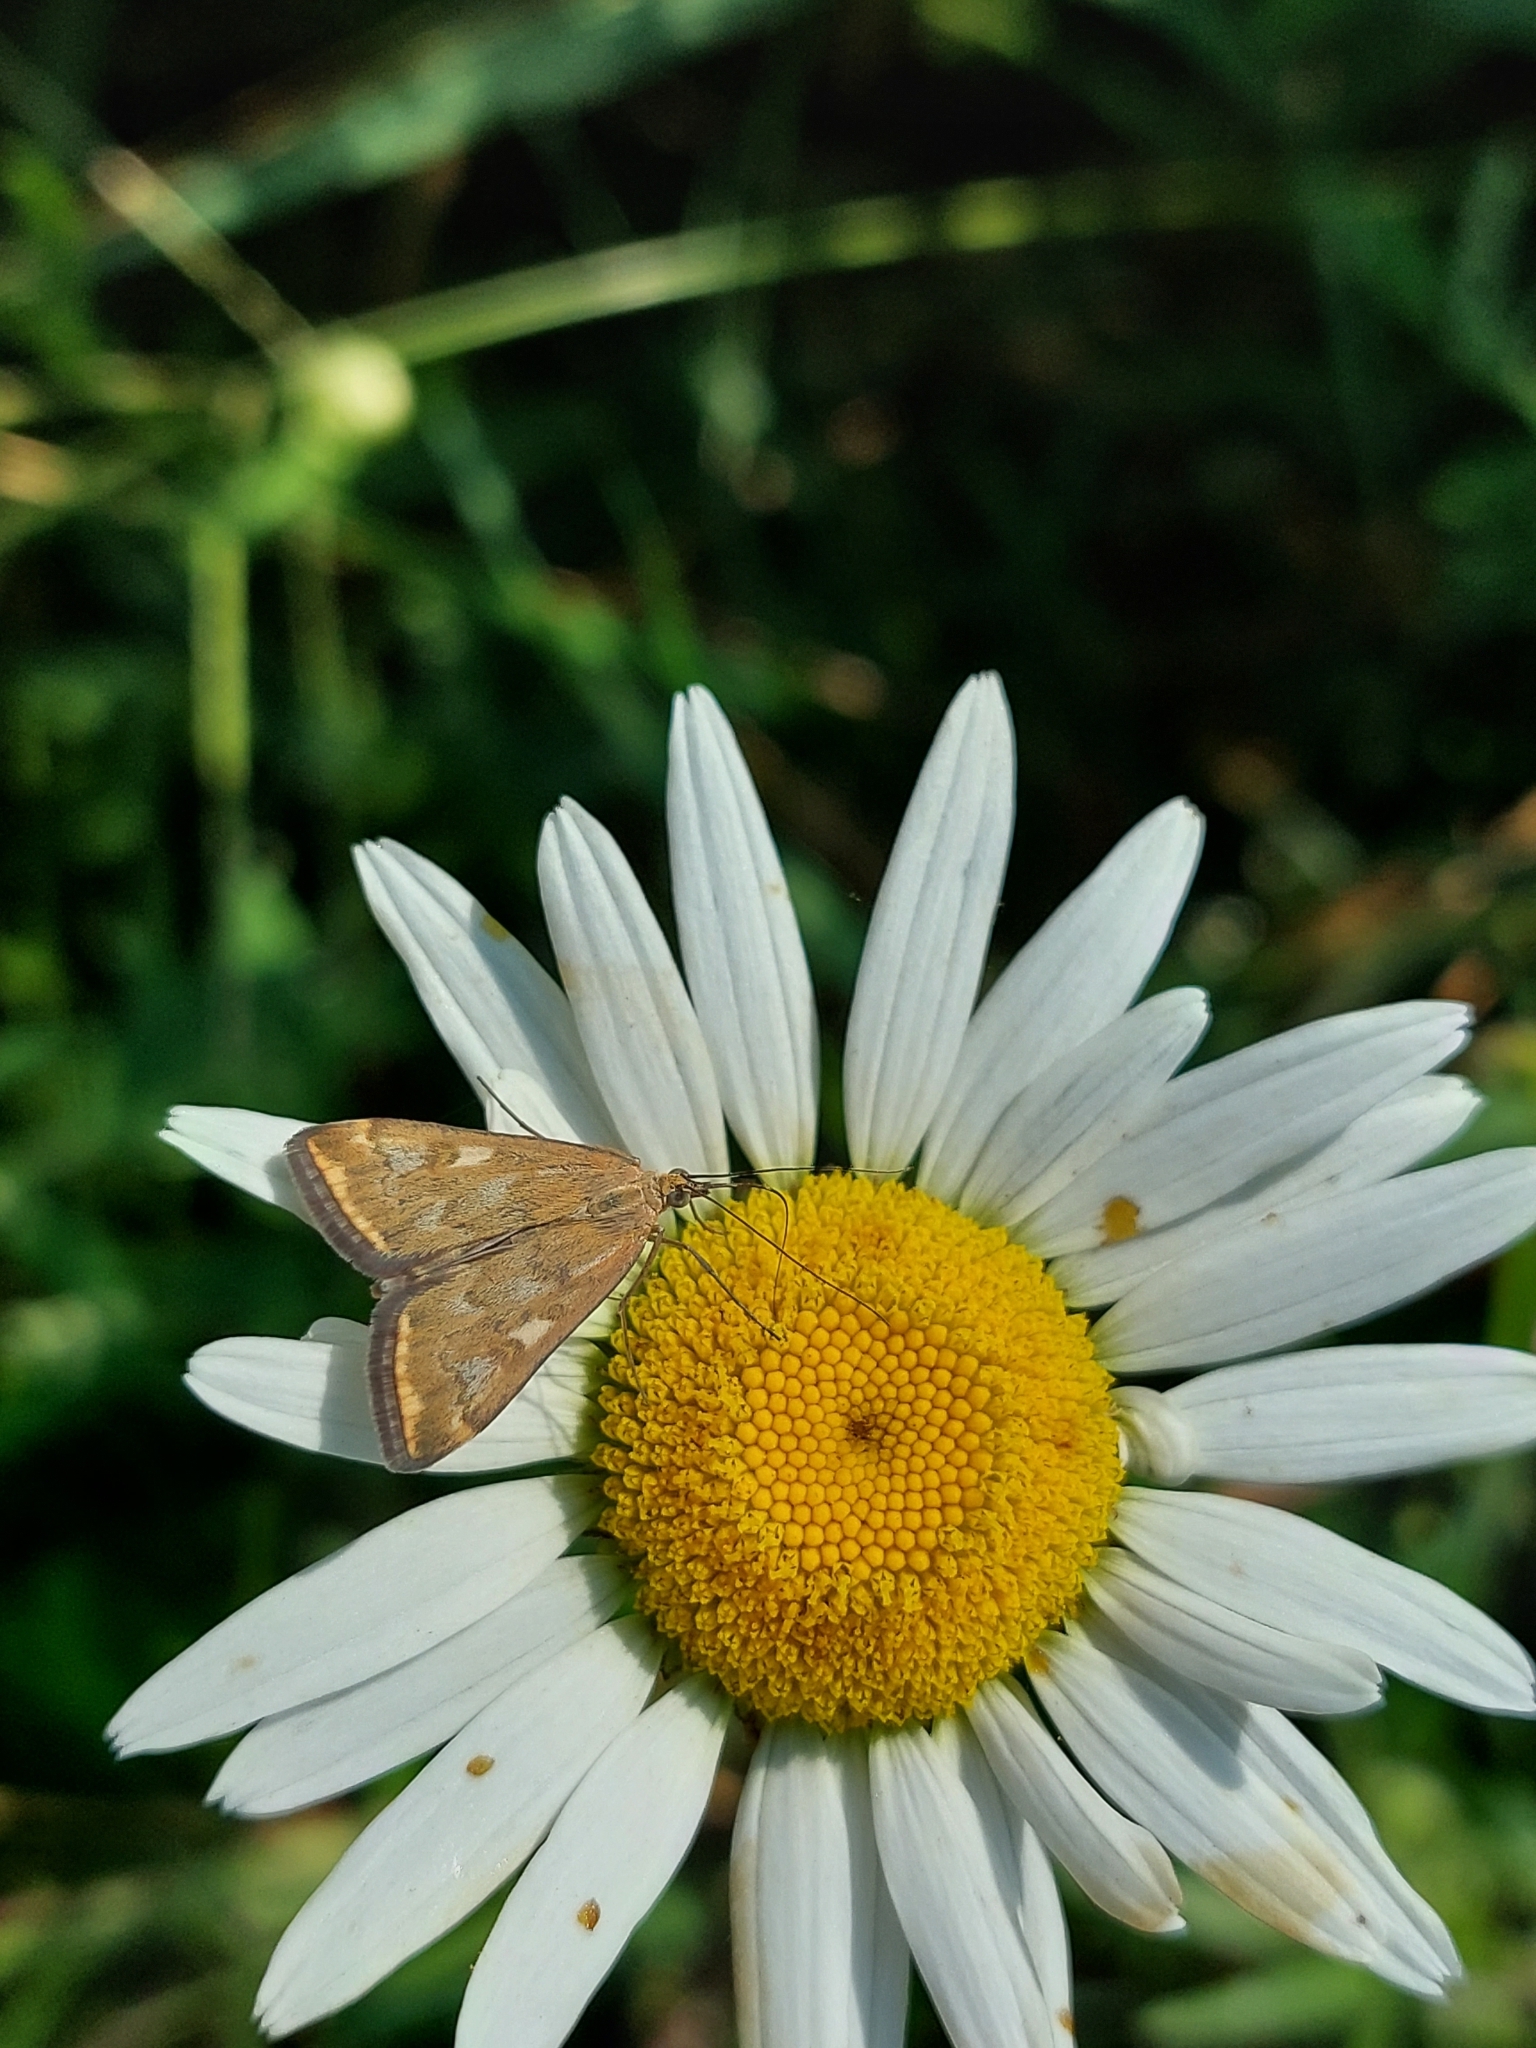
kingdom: Animalia
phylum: Arthropoda
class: Insecta
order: Lepidoptera
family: Crambidae
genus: Loxostege
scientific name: Loxostege sticticalis
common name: Crambid moth
